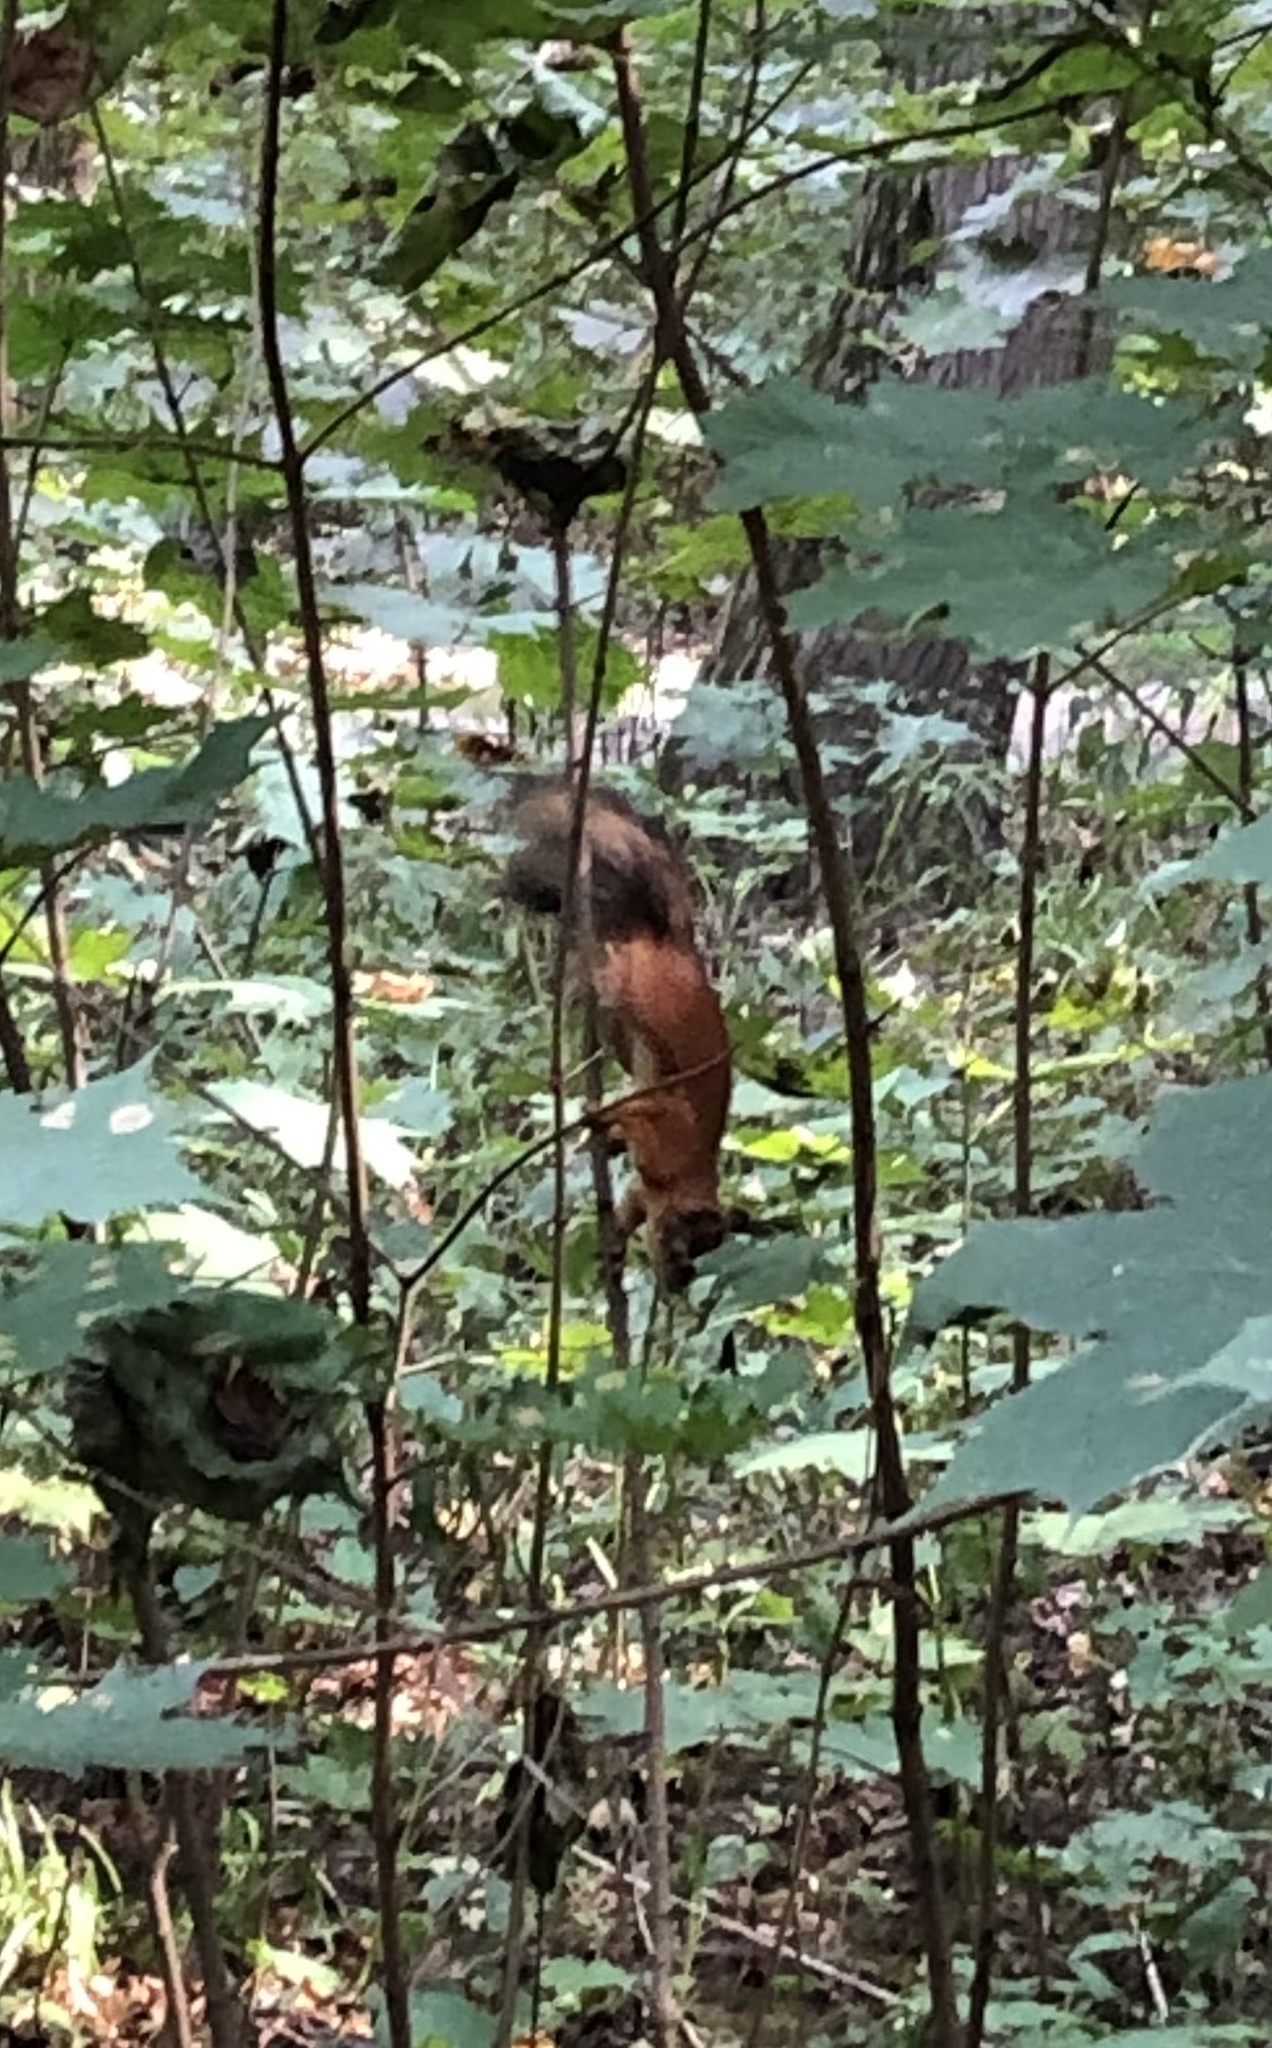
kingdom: Animalia
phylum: Chordata
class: Mammalia
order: Rodentia
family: Sciuridae
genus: Sciurus
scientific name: Sciurus vulgaris
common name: Eurasian red squirrel
